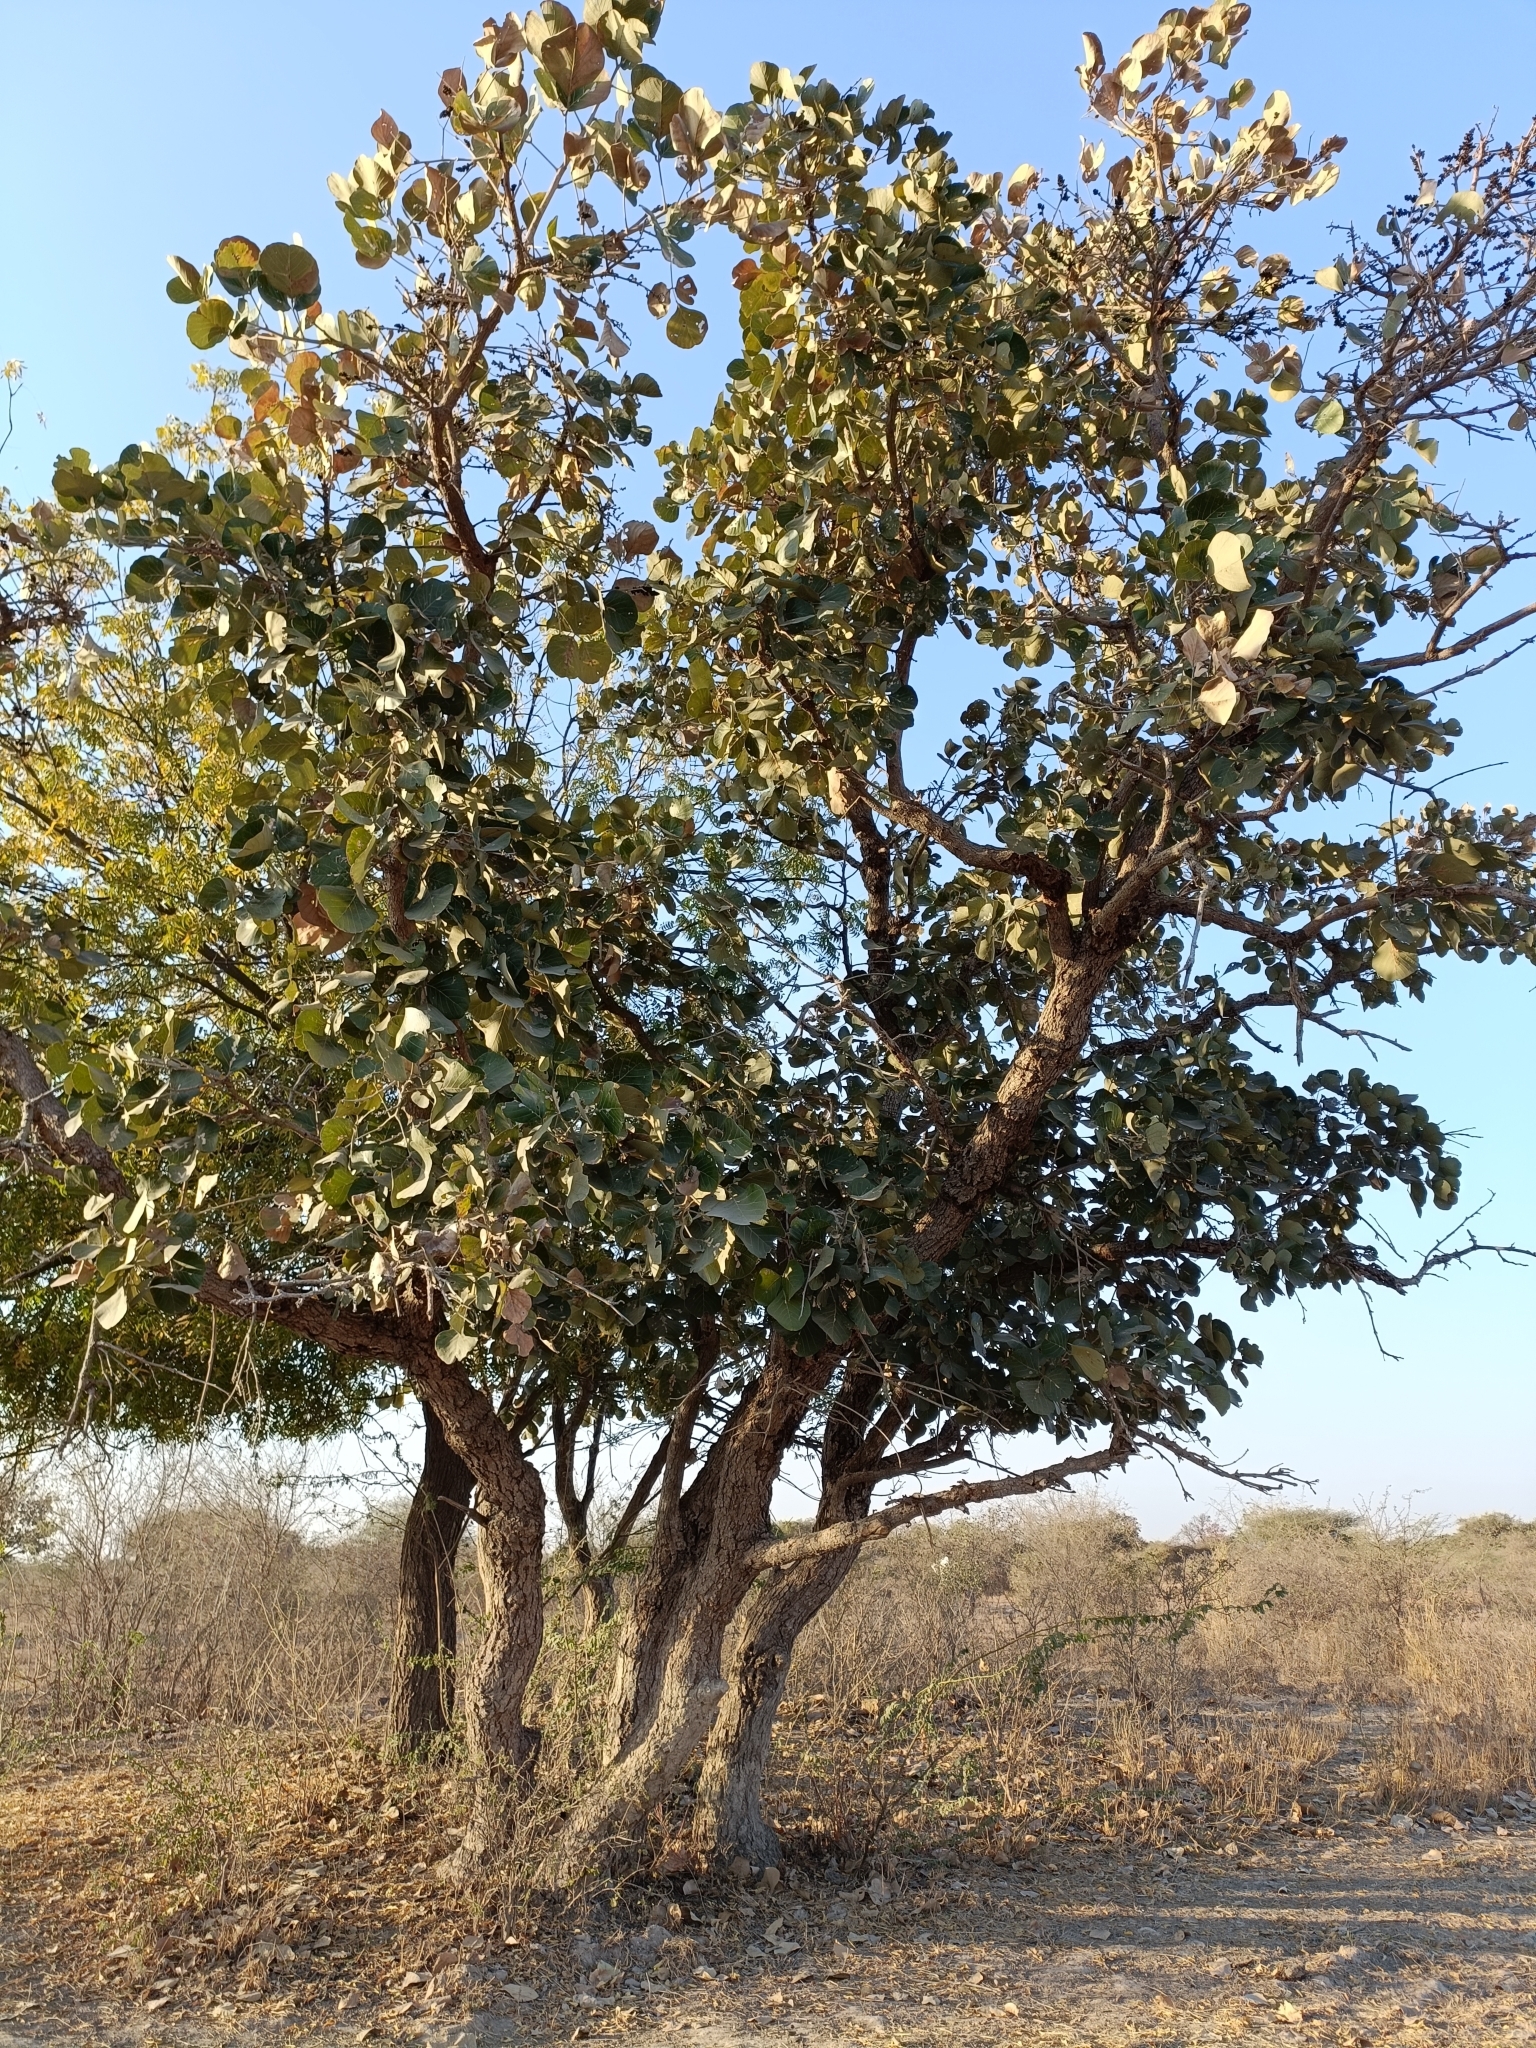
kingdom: Plantae
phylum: Tracheophyta
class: Magnoliopsida
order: Fabales
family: Fabaceae
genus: Butea
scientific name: Butea monosperma
